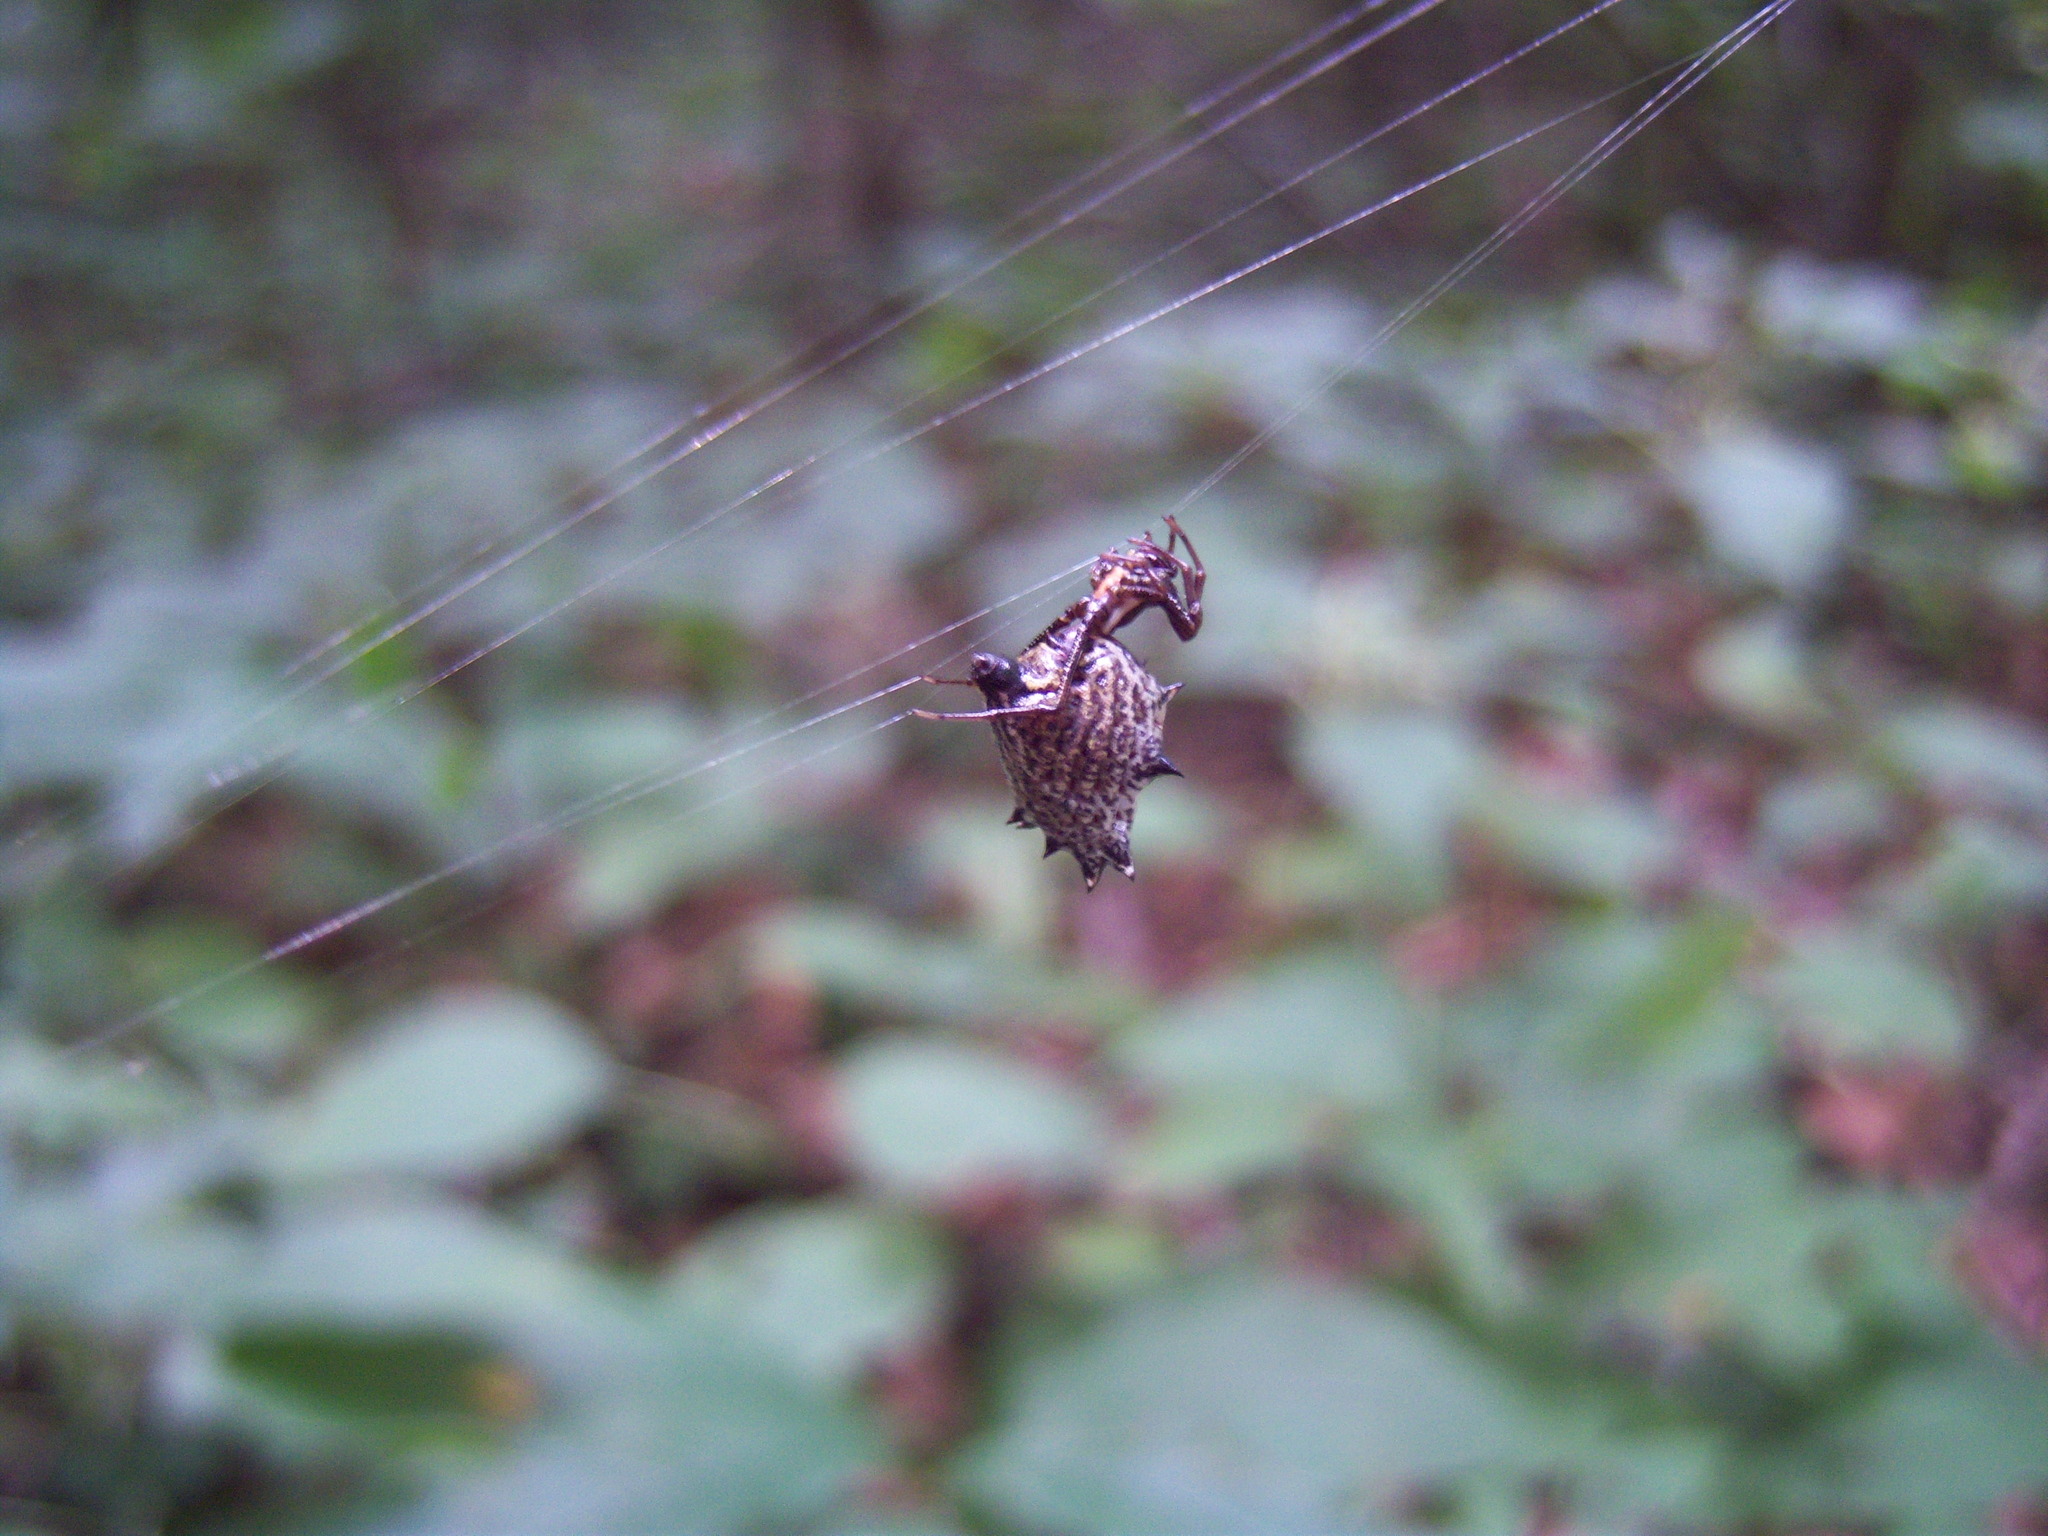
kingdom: Animalia
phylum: Arthropoda
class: Arachnida
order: Araneae
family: Araneidae
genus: Micrathena
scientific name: Micrathena gracilis
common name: Orb weavers
